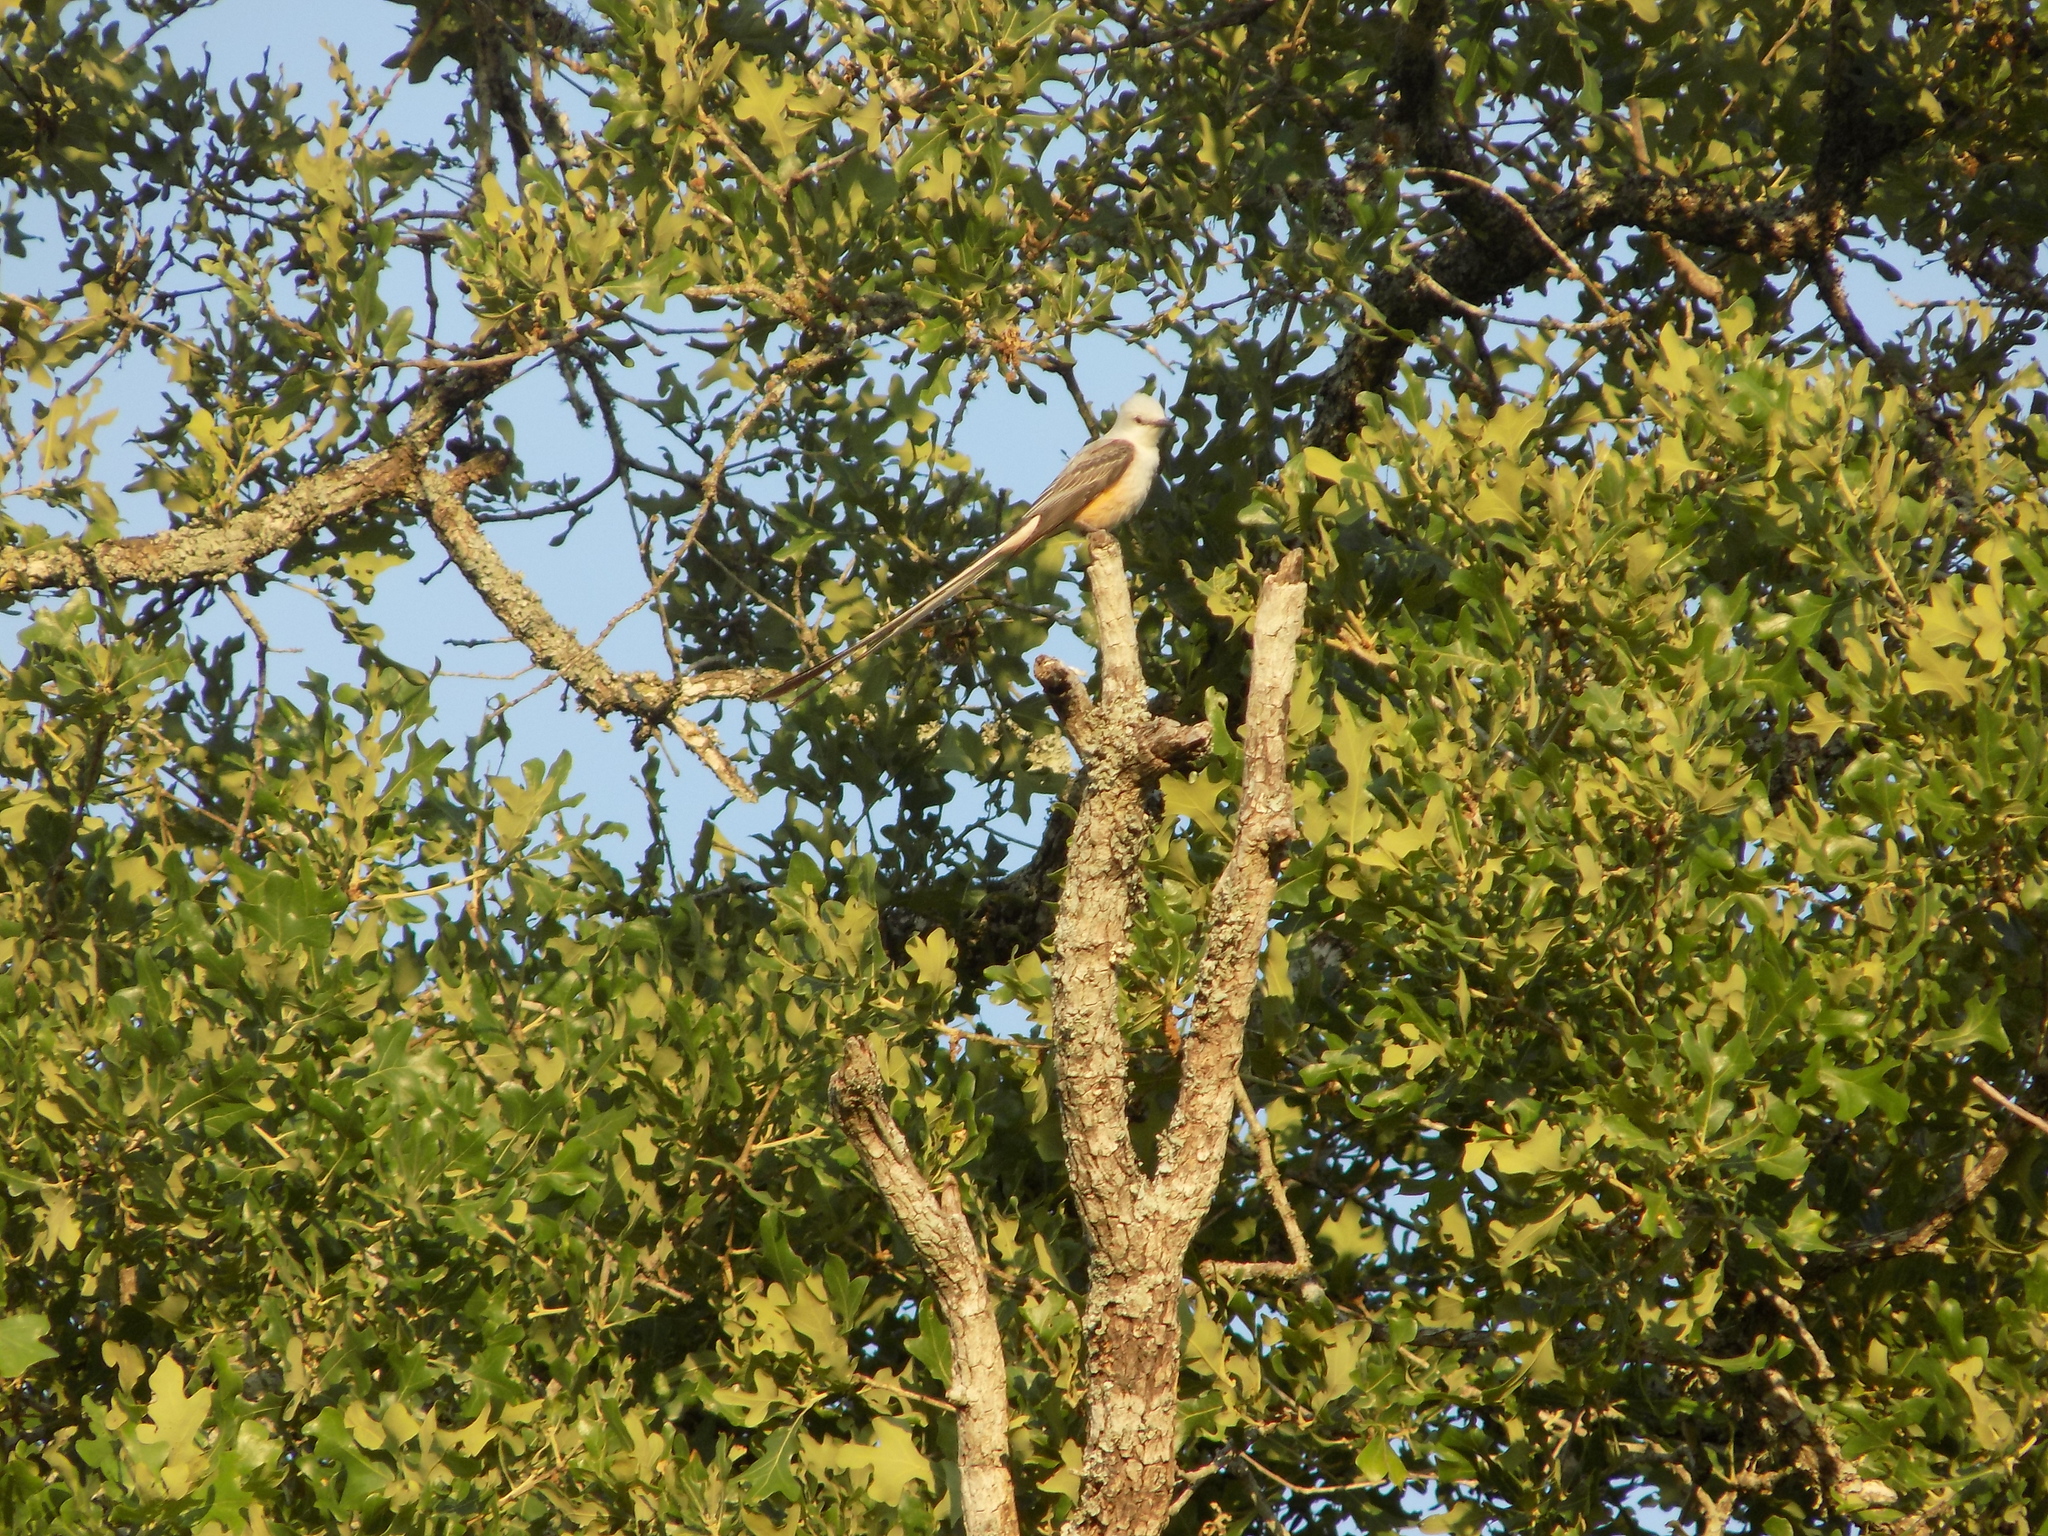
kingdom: Animalia
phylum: Chordata
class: Aves
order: Passeriformes
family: Tyrannidae
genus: Tyrannus
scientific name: Tyrannus forficatus
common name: Scissor-tailed flycatcher
